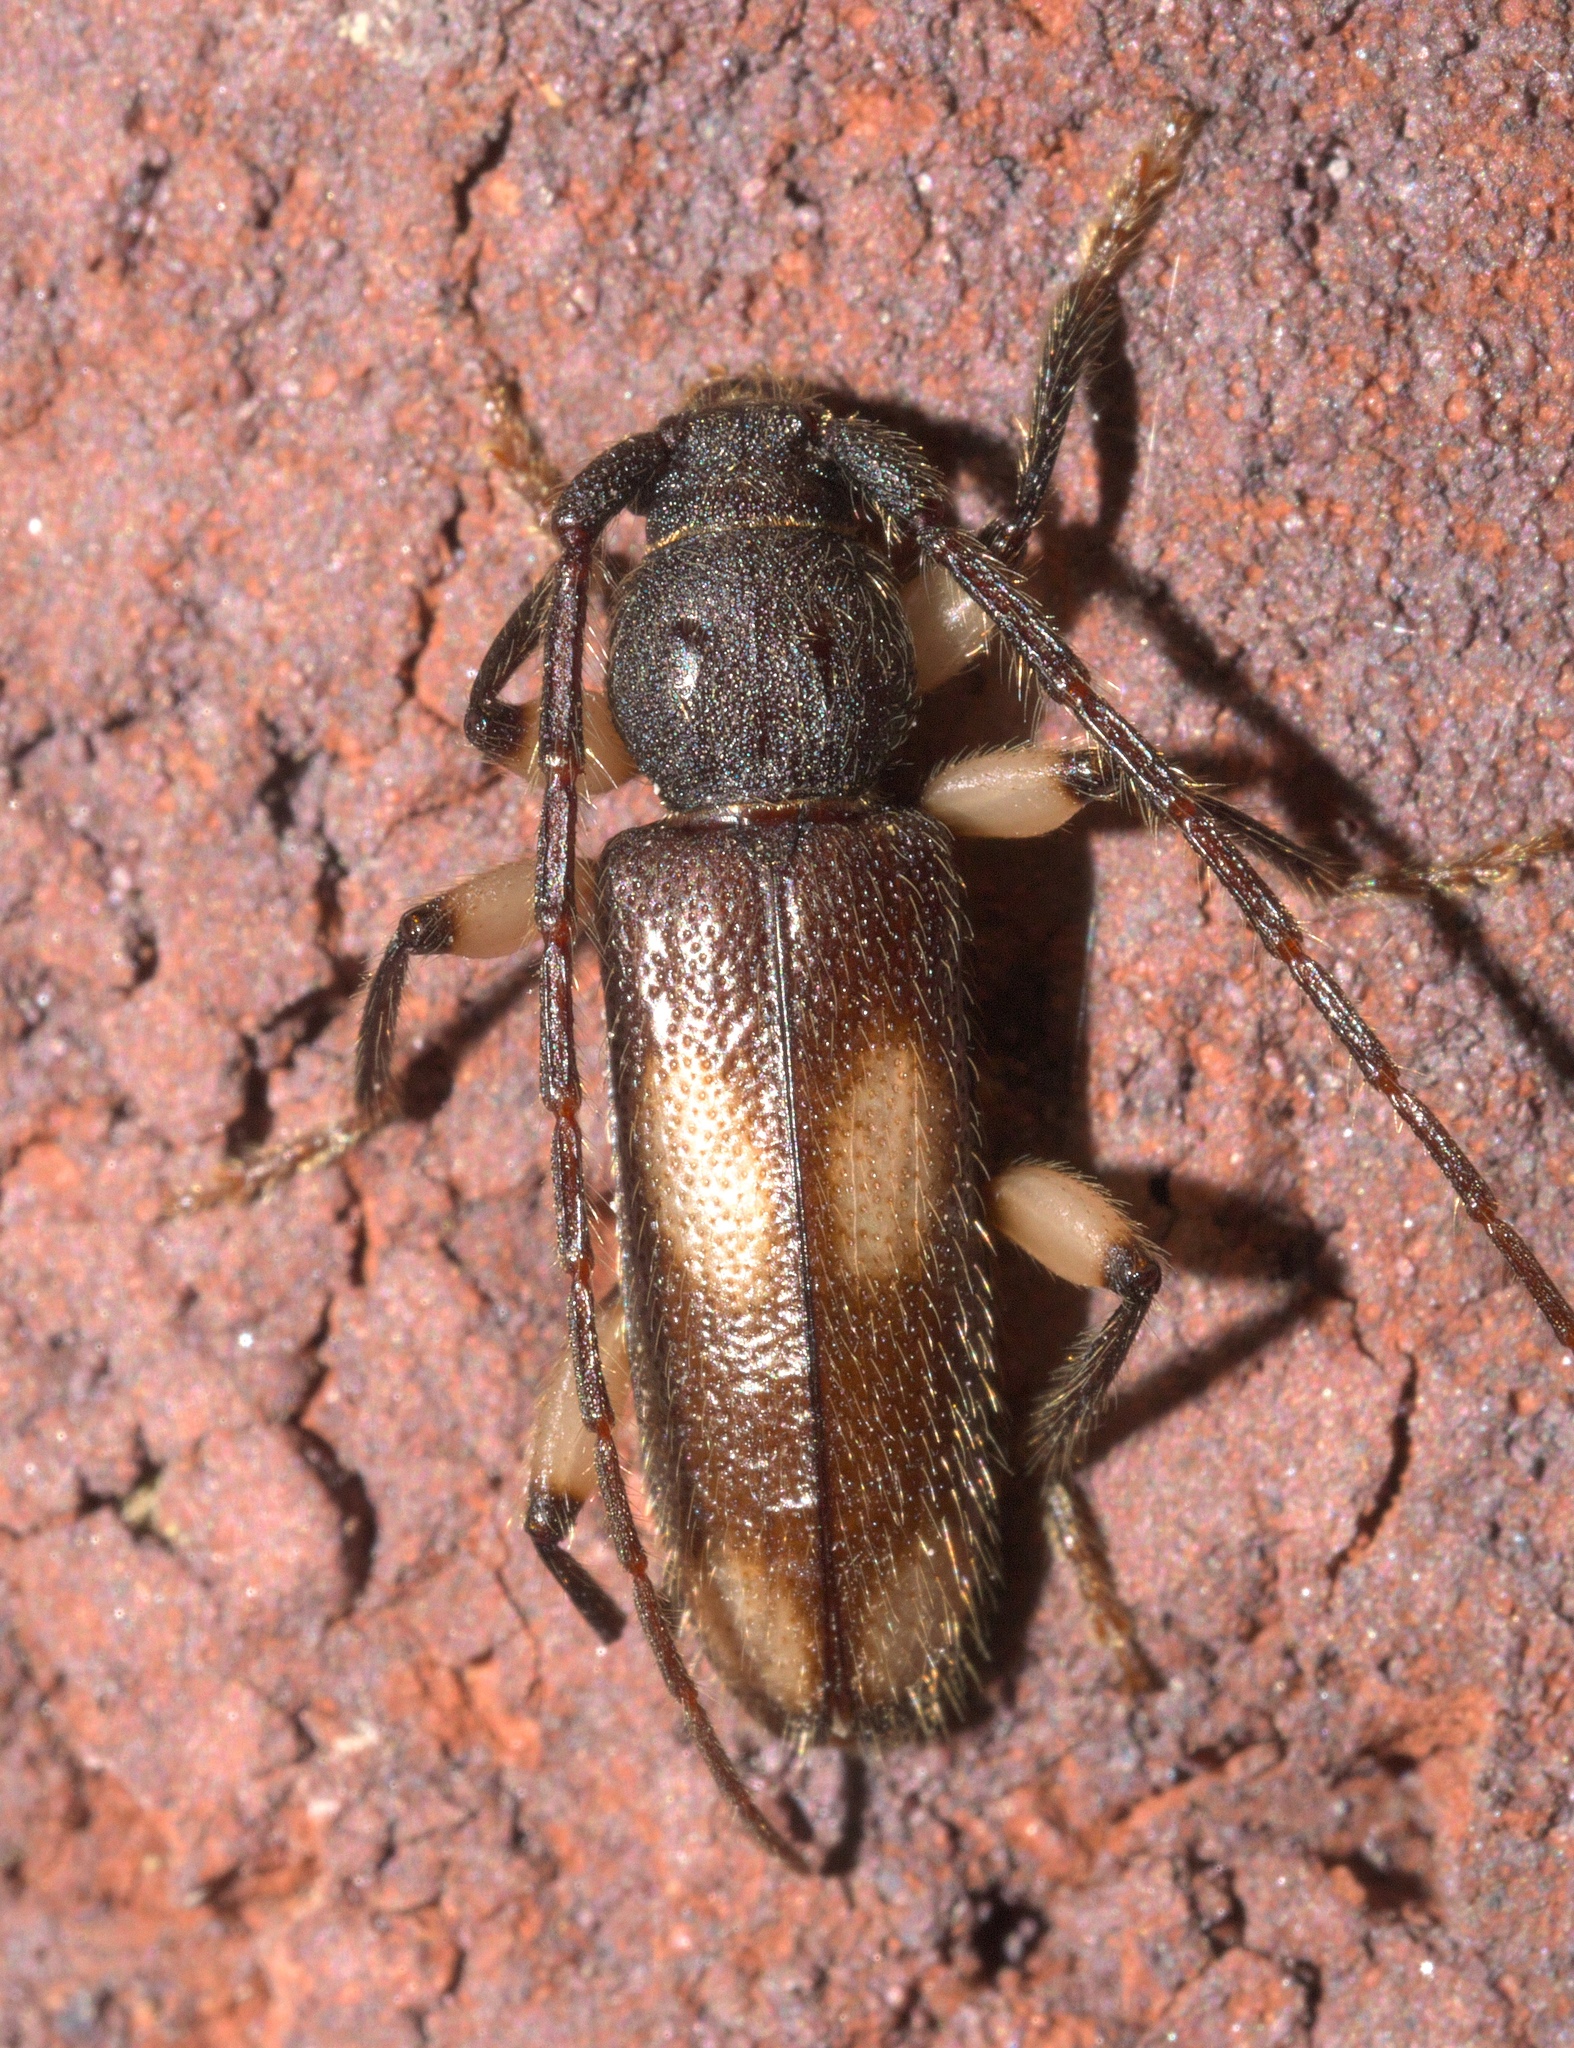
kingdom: Animalia
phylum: Arthropoda
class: Insecta
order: Coleoptera
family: Cerambycidae
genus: Tylonotus
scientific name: Tylonotus bimaculatus
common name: Ash and privet borer
